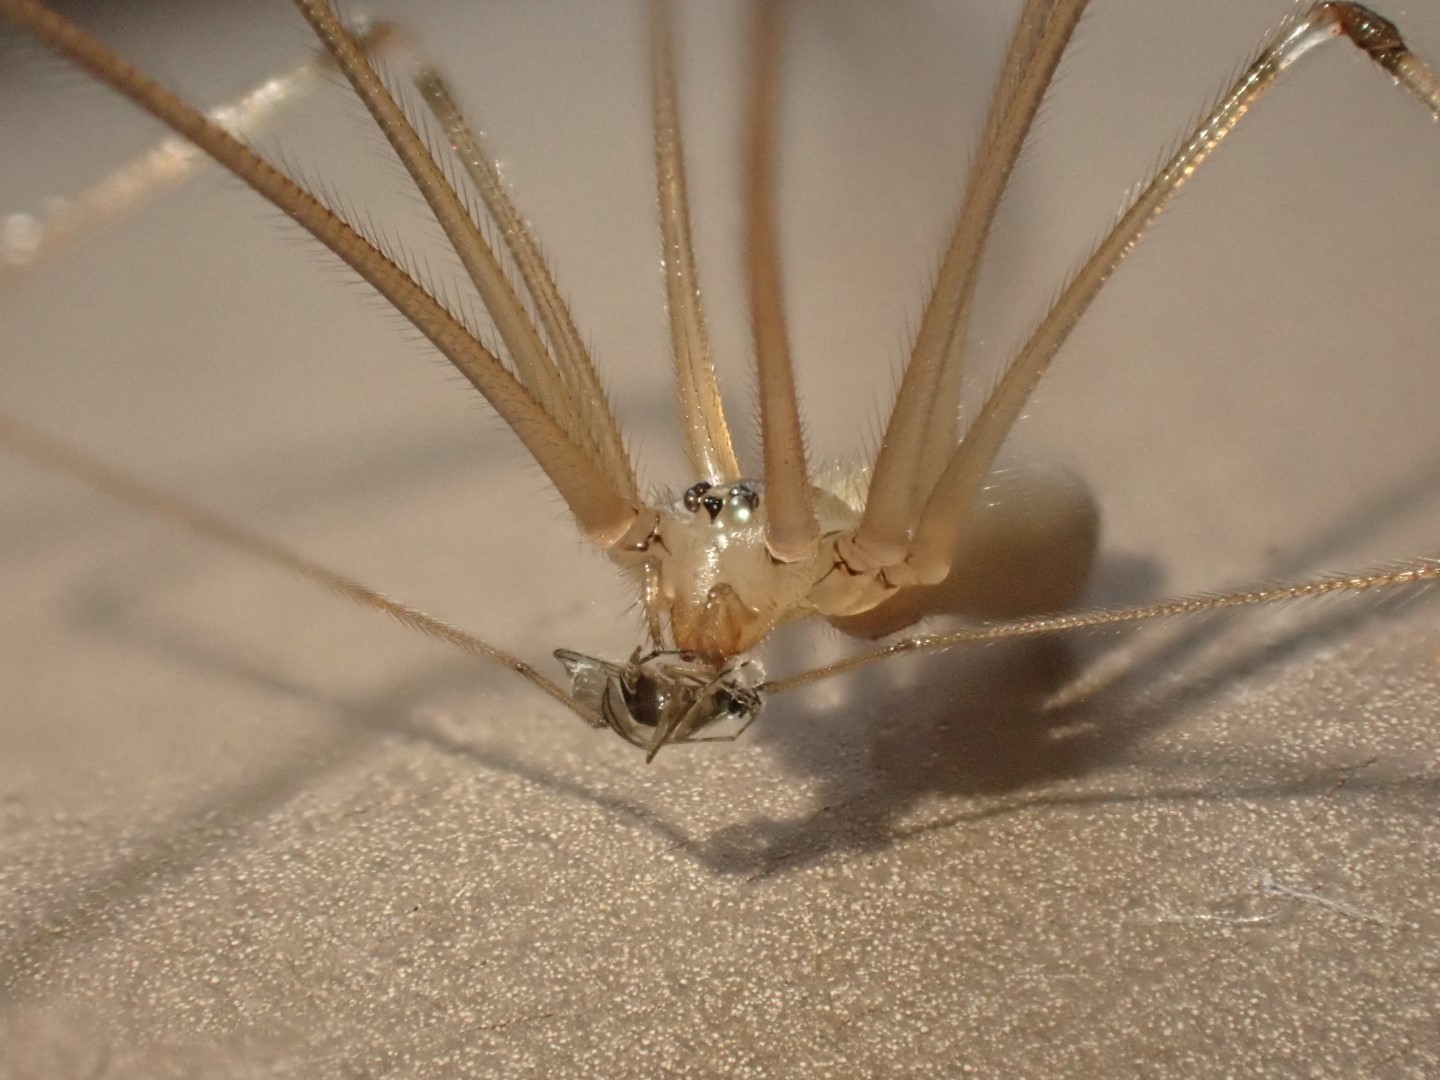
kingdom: Animalia
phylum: Arthropoda
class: Arachnida
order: Araneae
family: Pholcidae
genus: Pholcus
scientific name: Pholcus phalangioides
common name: Longbodied cellar spider
